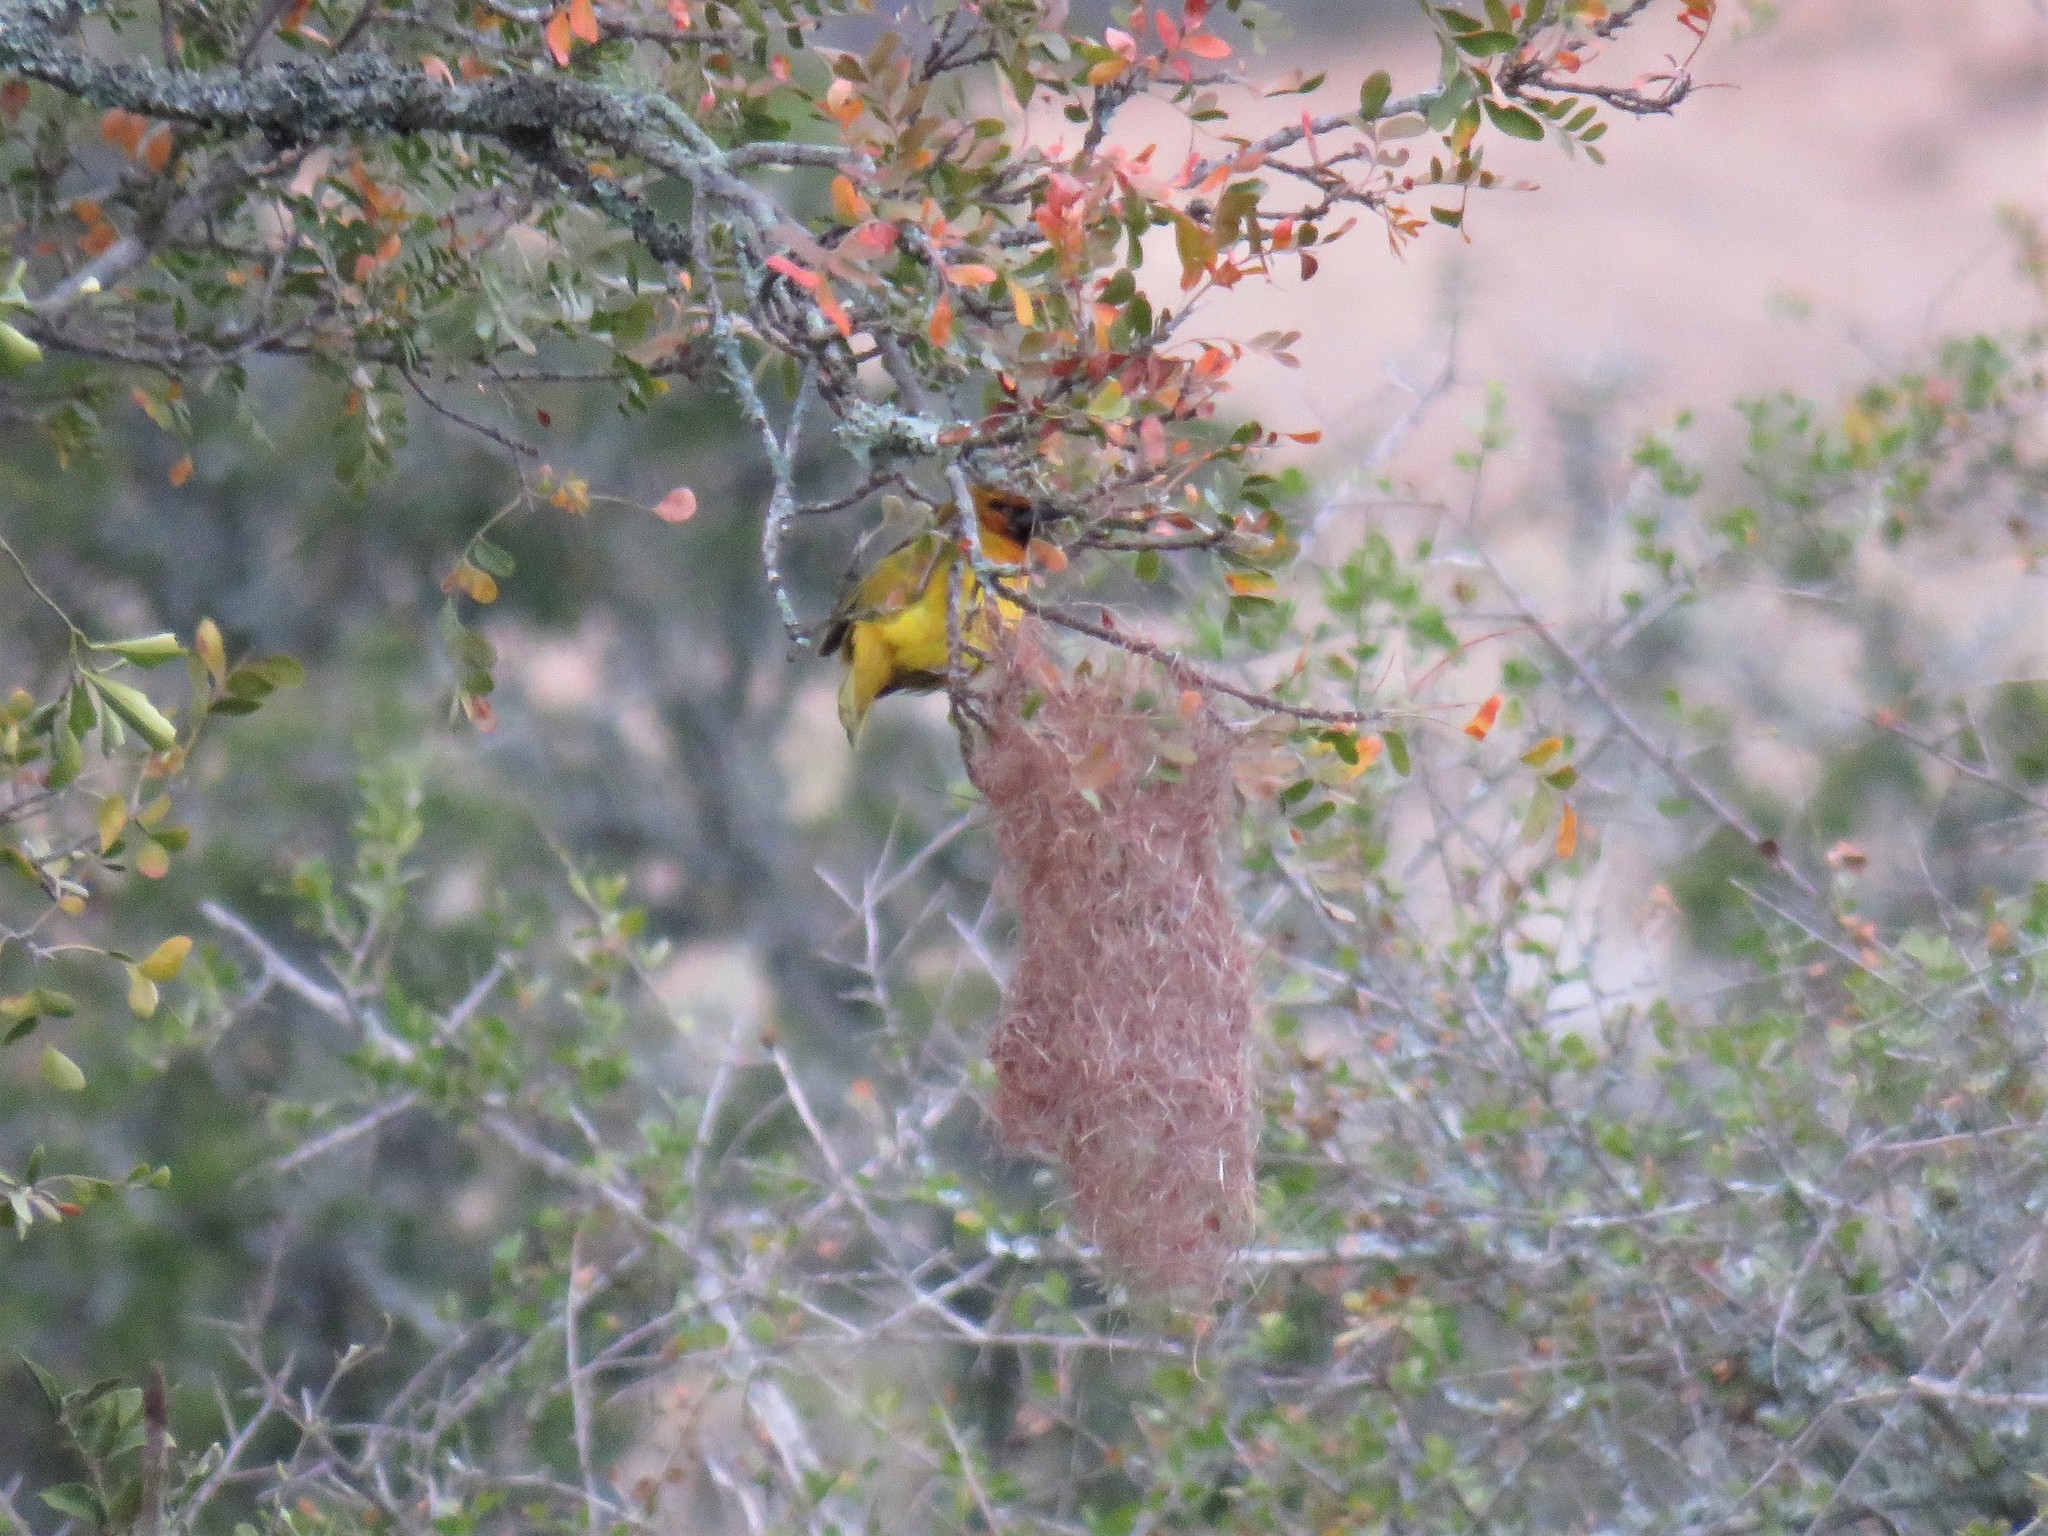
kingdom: Animalia
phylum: Chordata
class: Aves
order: Passeriformes
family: Ploceidae
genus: Ploceus
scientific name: Ploceus ocularis
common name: Spectacled weaver
